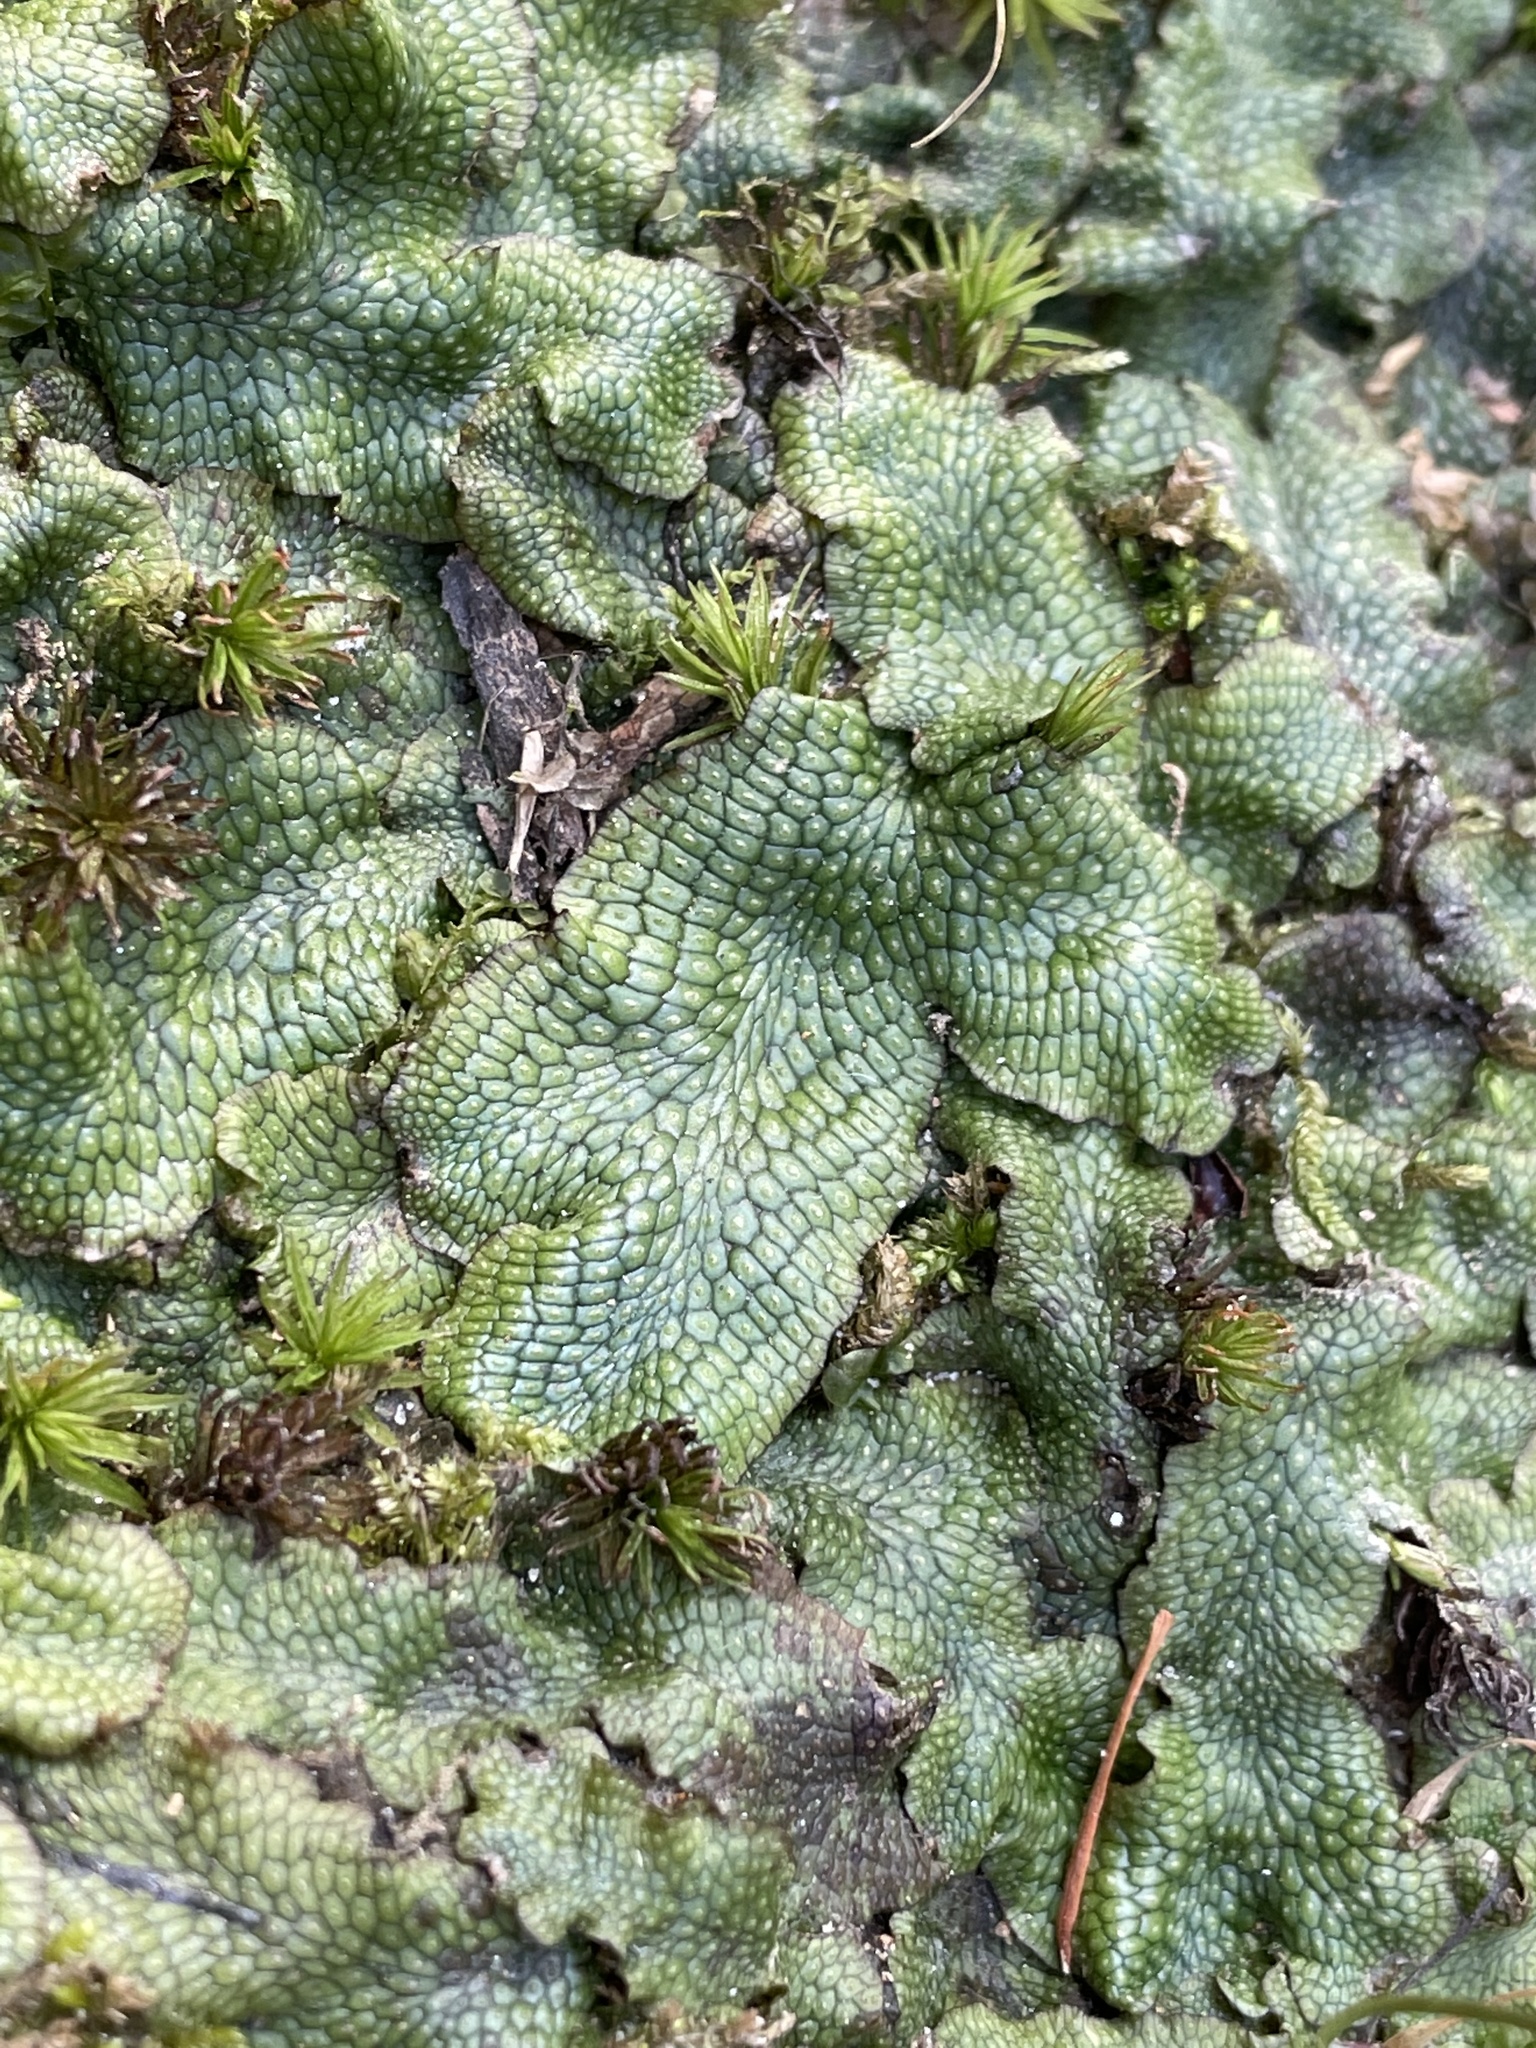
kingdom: Plantae
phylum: Marchantiophyta
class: Marchantiopsida
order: Marchantiales
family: Conocephalaceae
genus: Conocephalum
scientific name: Conocephalum salebrosum
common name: Cat-tongue liverwort
